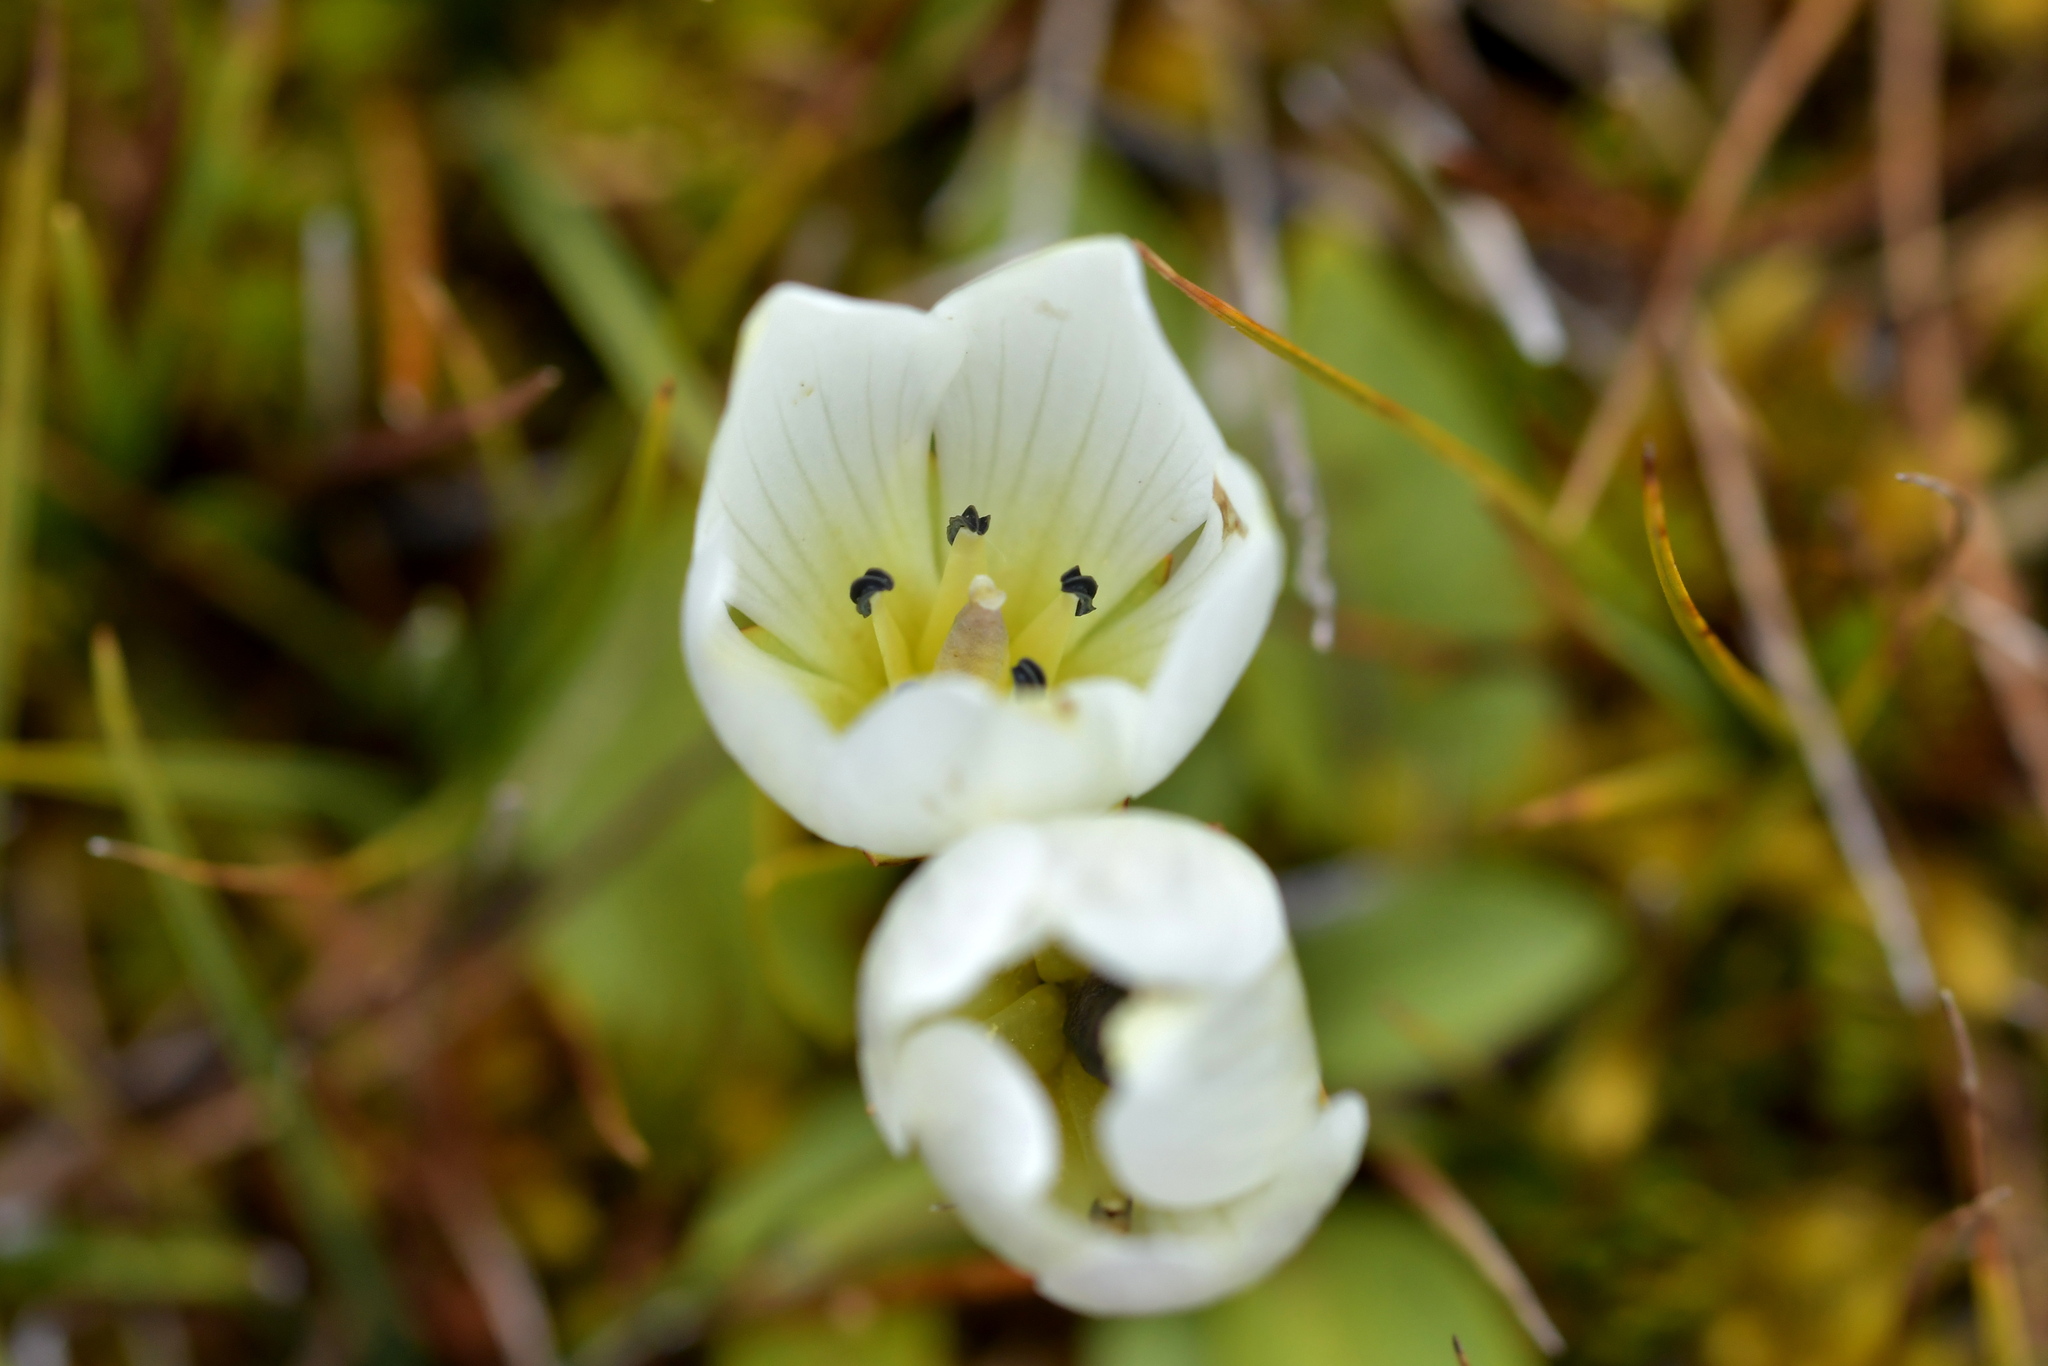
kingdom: Plantae
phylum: Tracheophyta
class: Magnoliopsida
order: Gentianales
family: Gentianaceae
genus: Gentianella
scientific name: Gentianella amabilis
